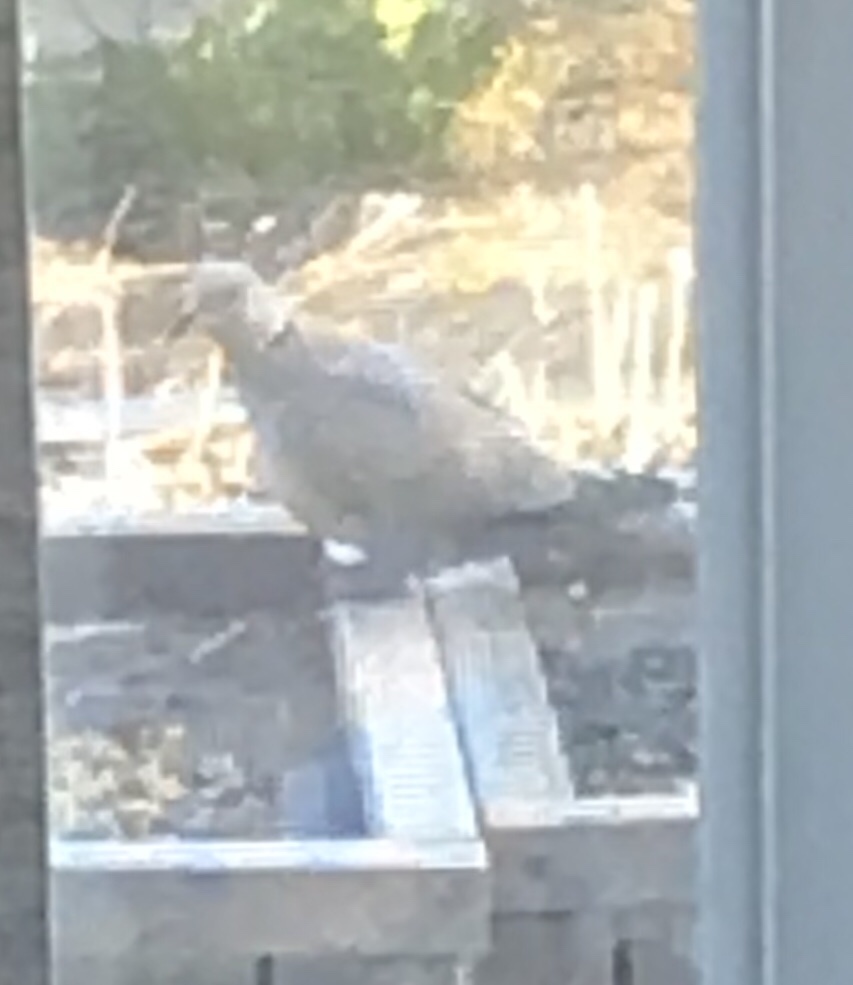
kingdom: Animalia
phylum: Chordata
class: Aves
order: Columbiformes
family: Columbidae
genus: Streptopelia
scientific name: Streptopelia decaocto
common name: Eurasian collared dove
